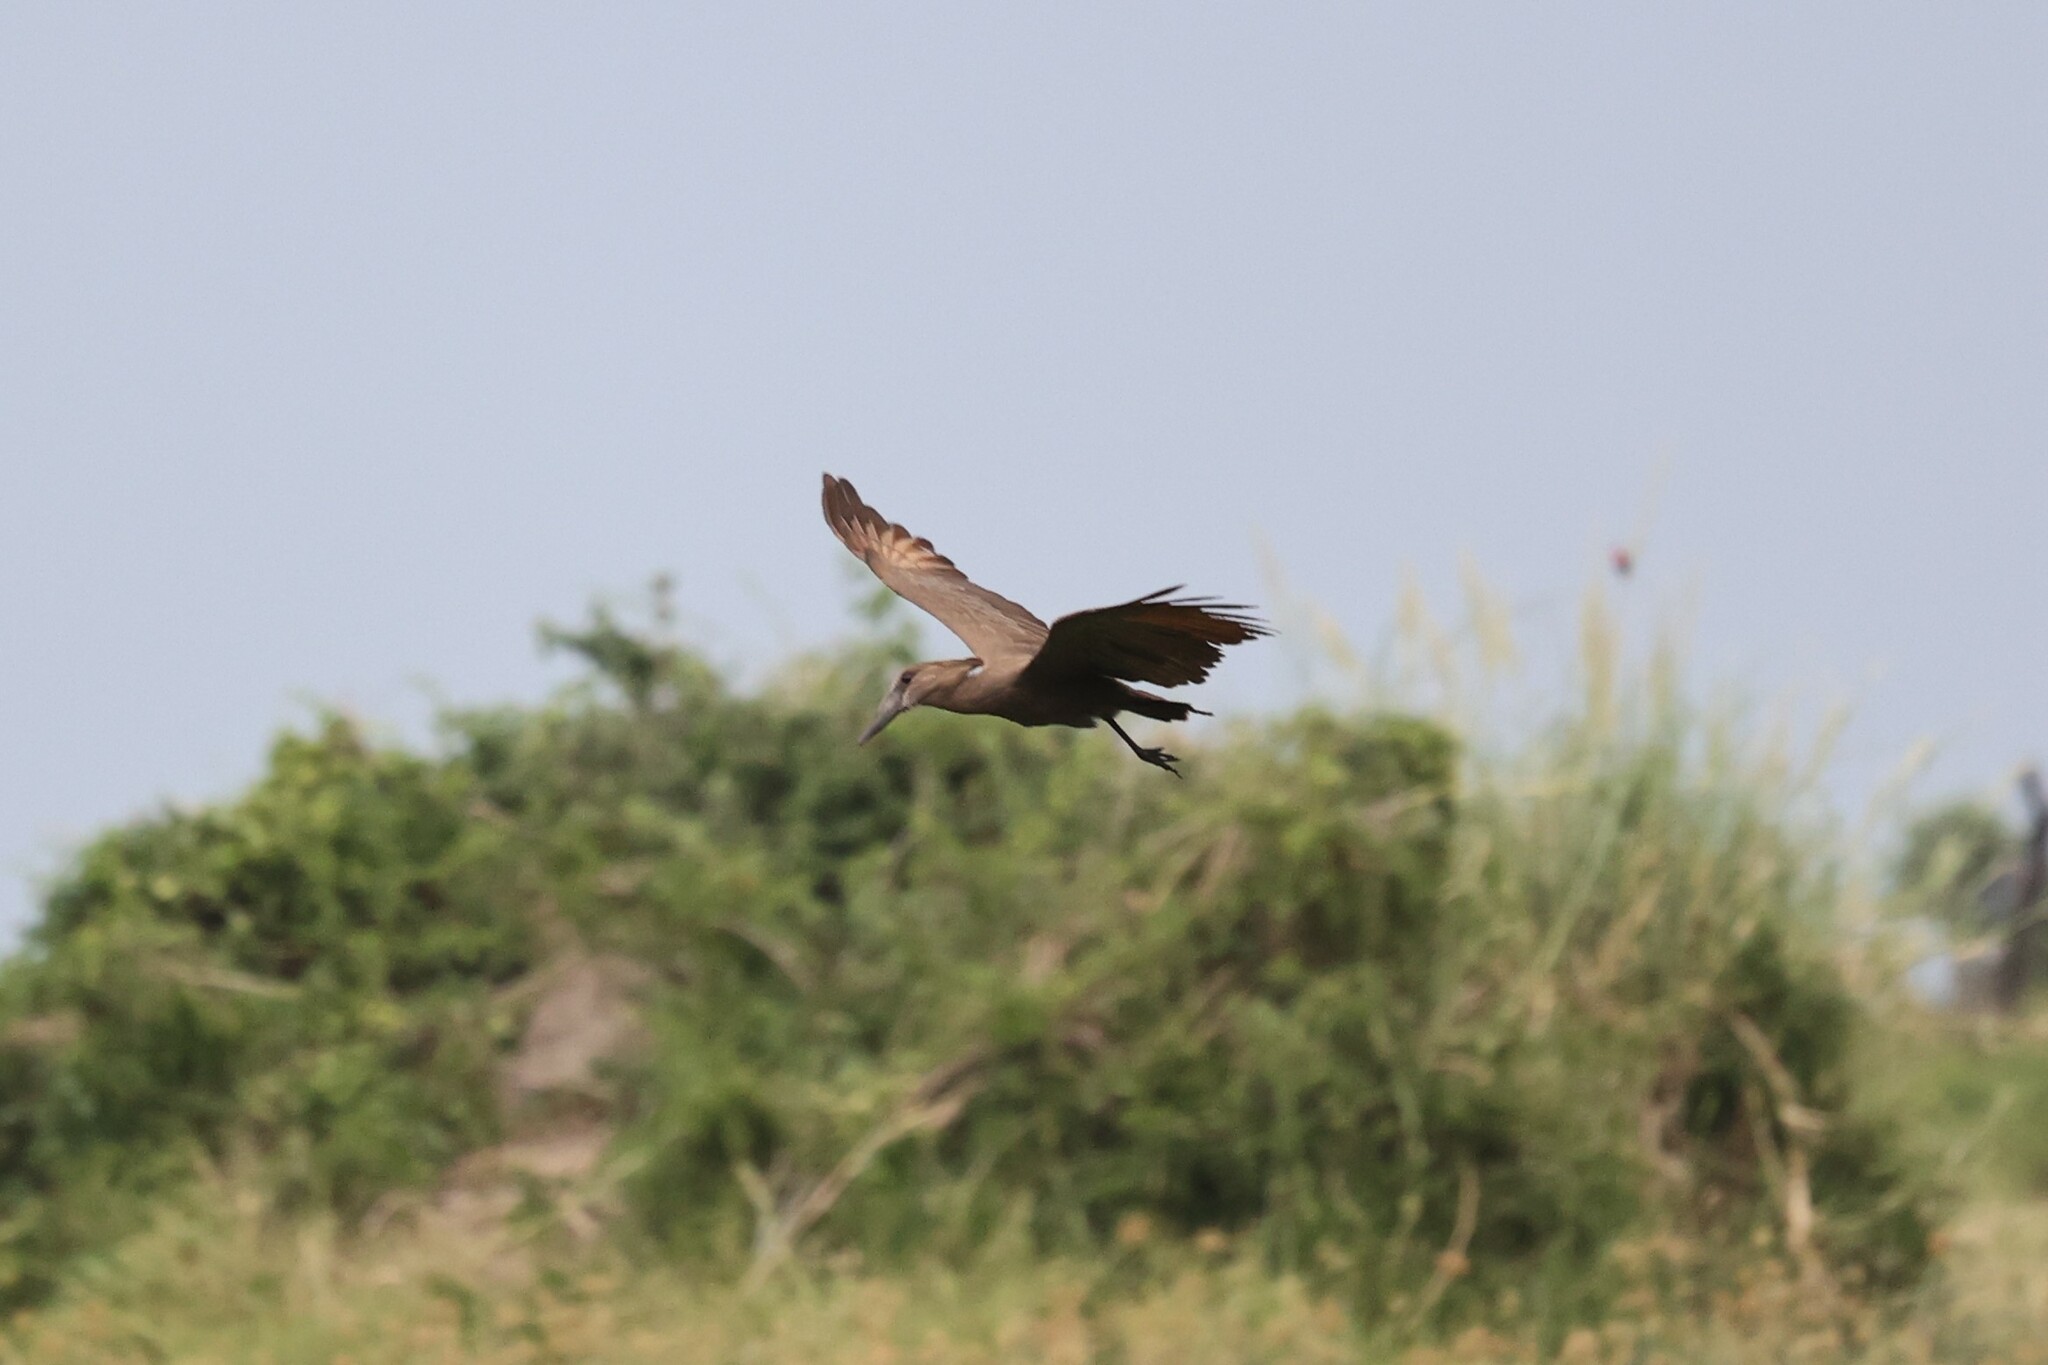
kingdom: Animalia
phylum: Chordata
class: Aves
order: Pelecaniformes
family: Scopidae
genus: Scopus
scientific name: Scopus umbretta
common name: Hamerkop
